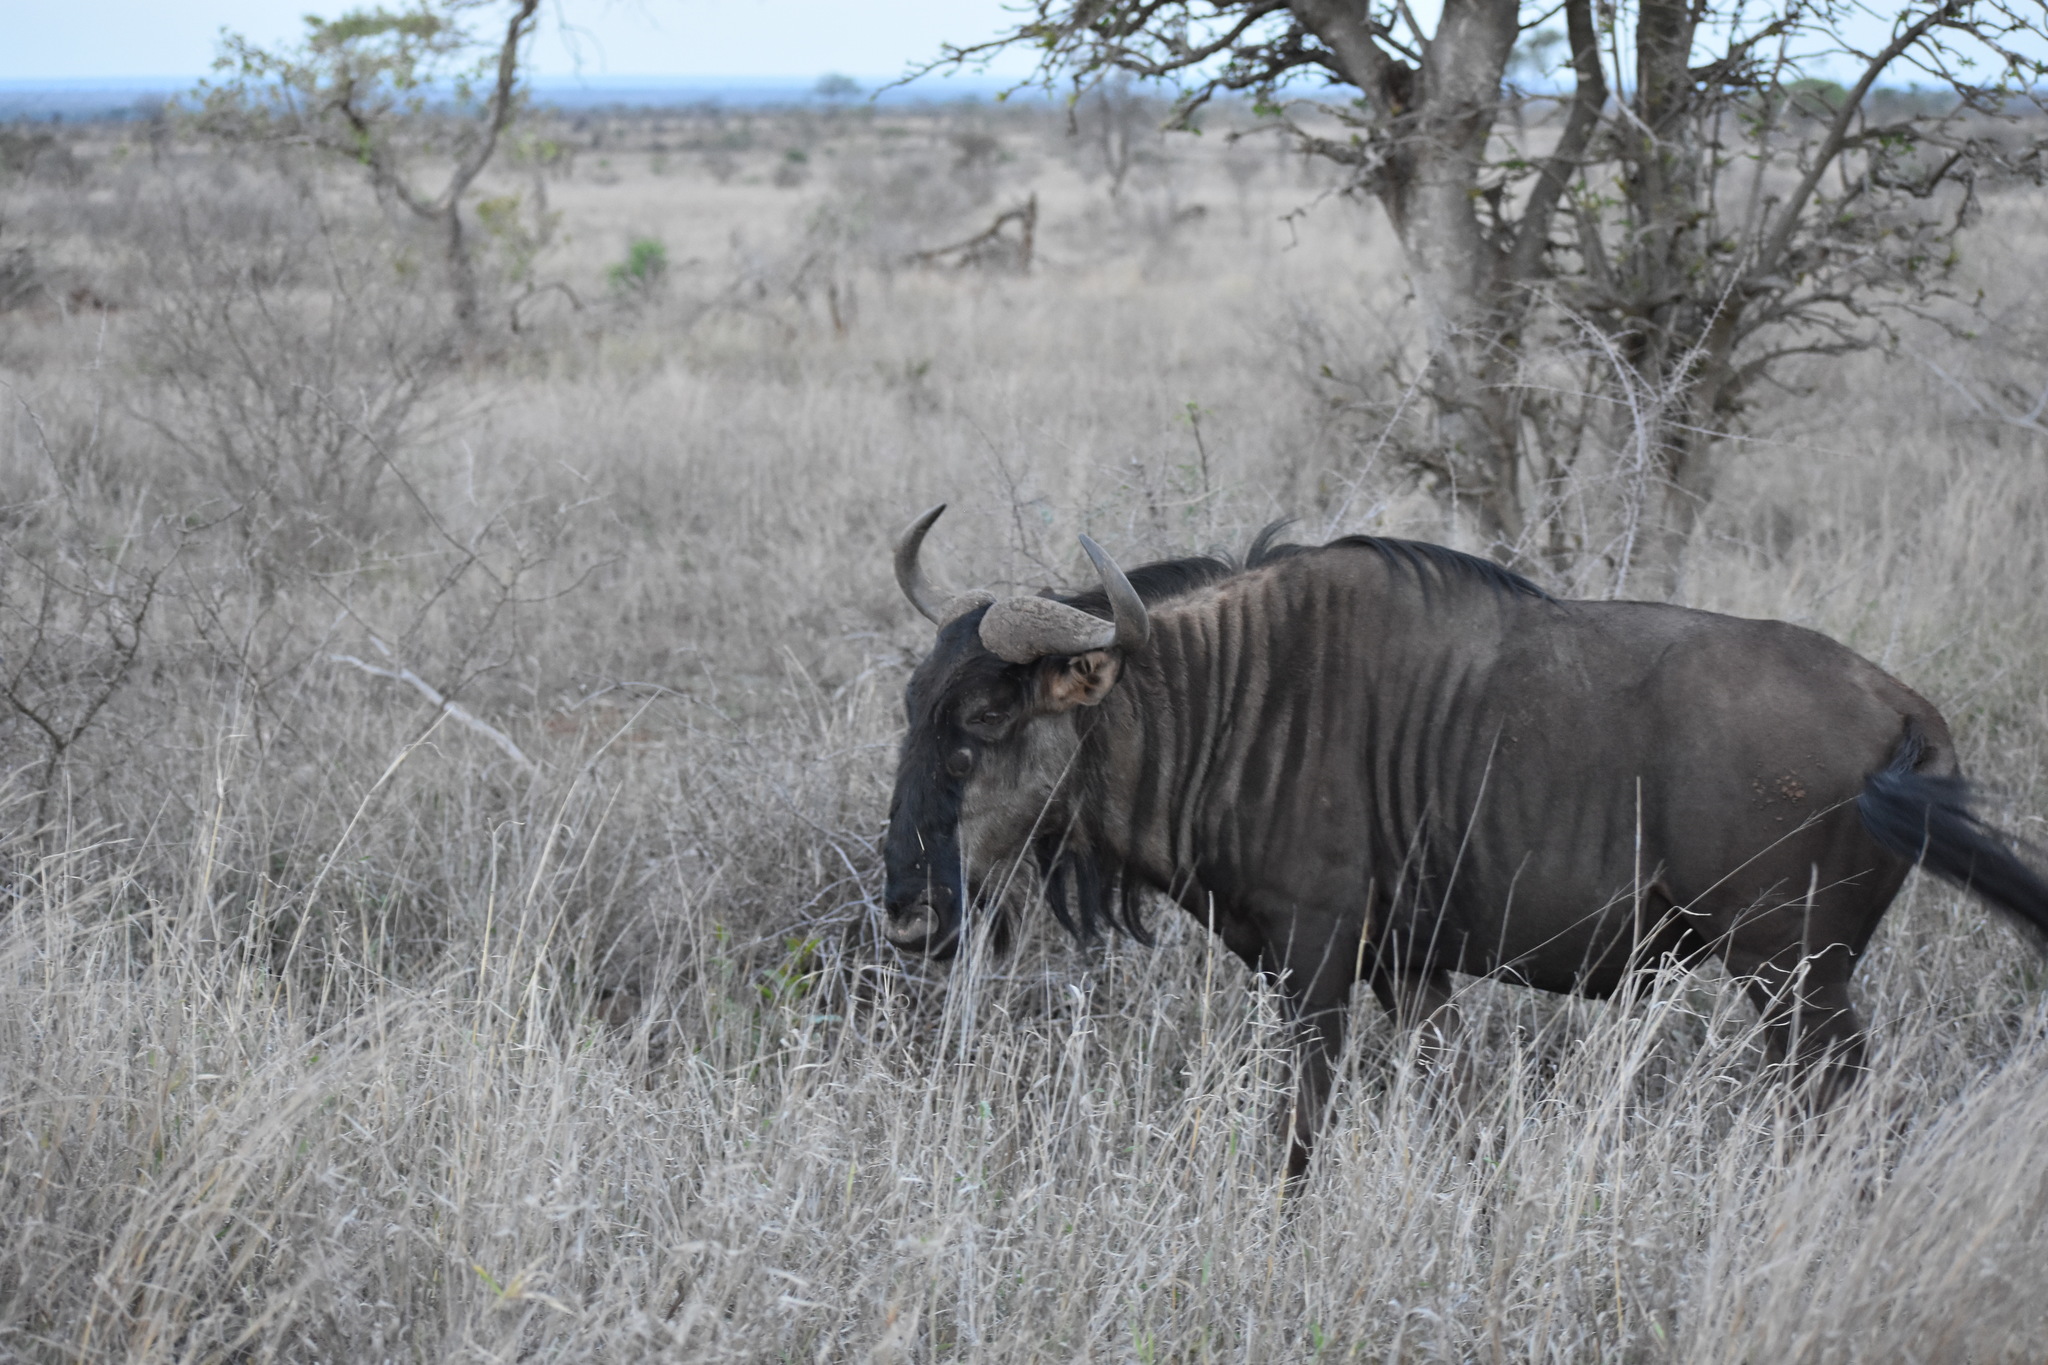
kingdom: Animalia
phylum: Chordata
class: Mammalia
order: Artiodactyla
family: Bovidae
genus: Connochaetes
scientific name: Connochaetes taurinus
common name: Blue wildebeest
